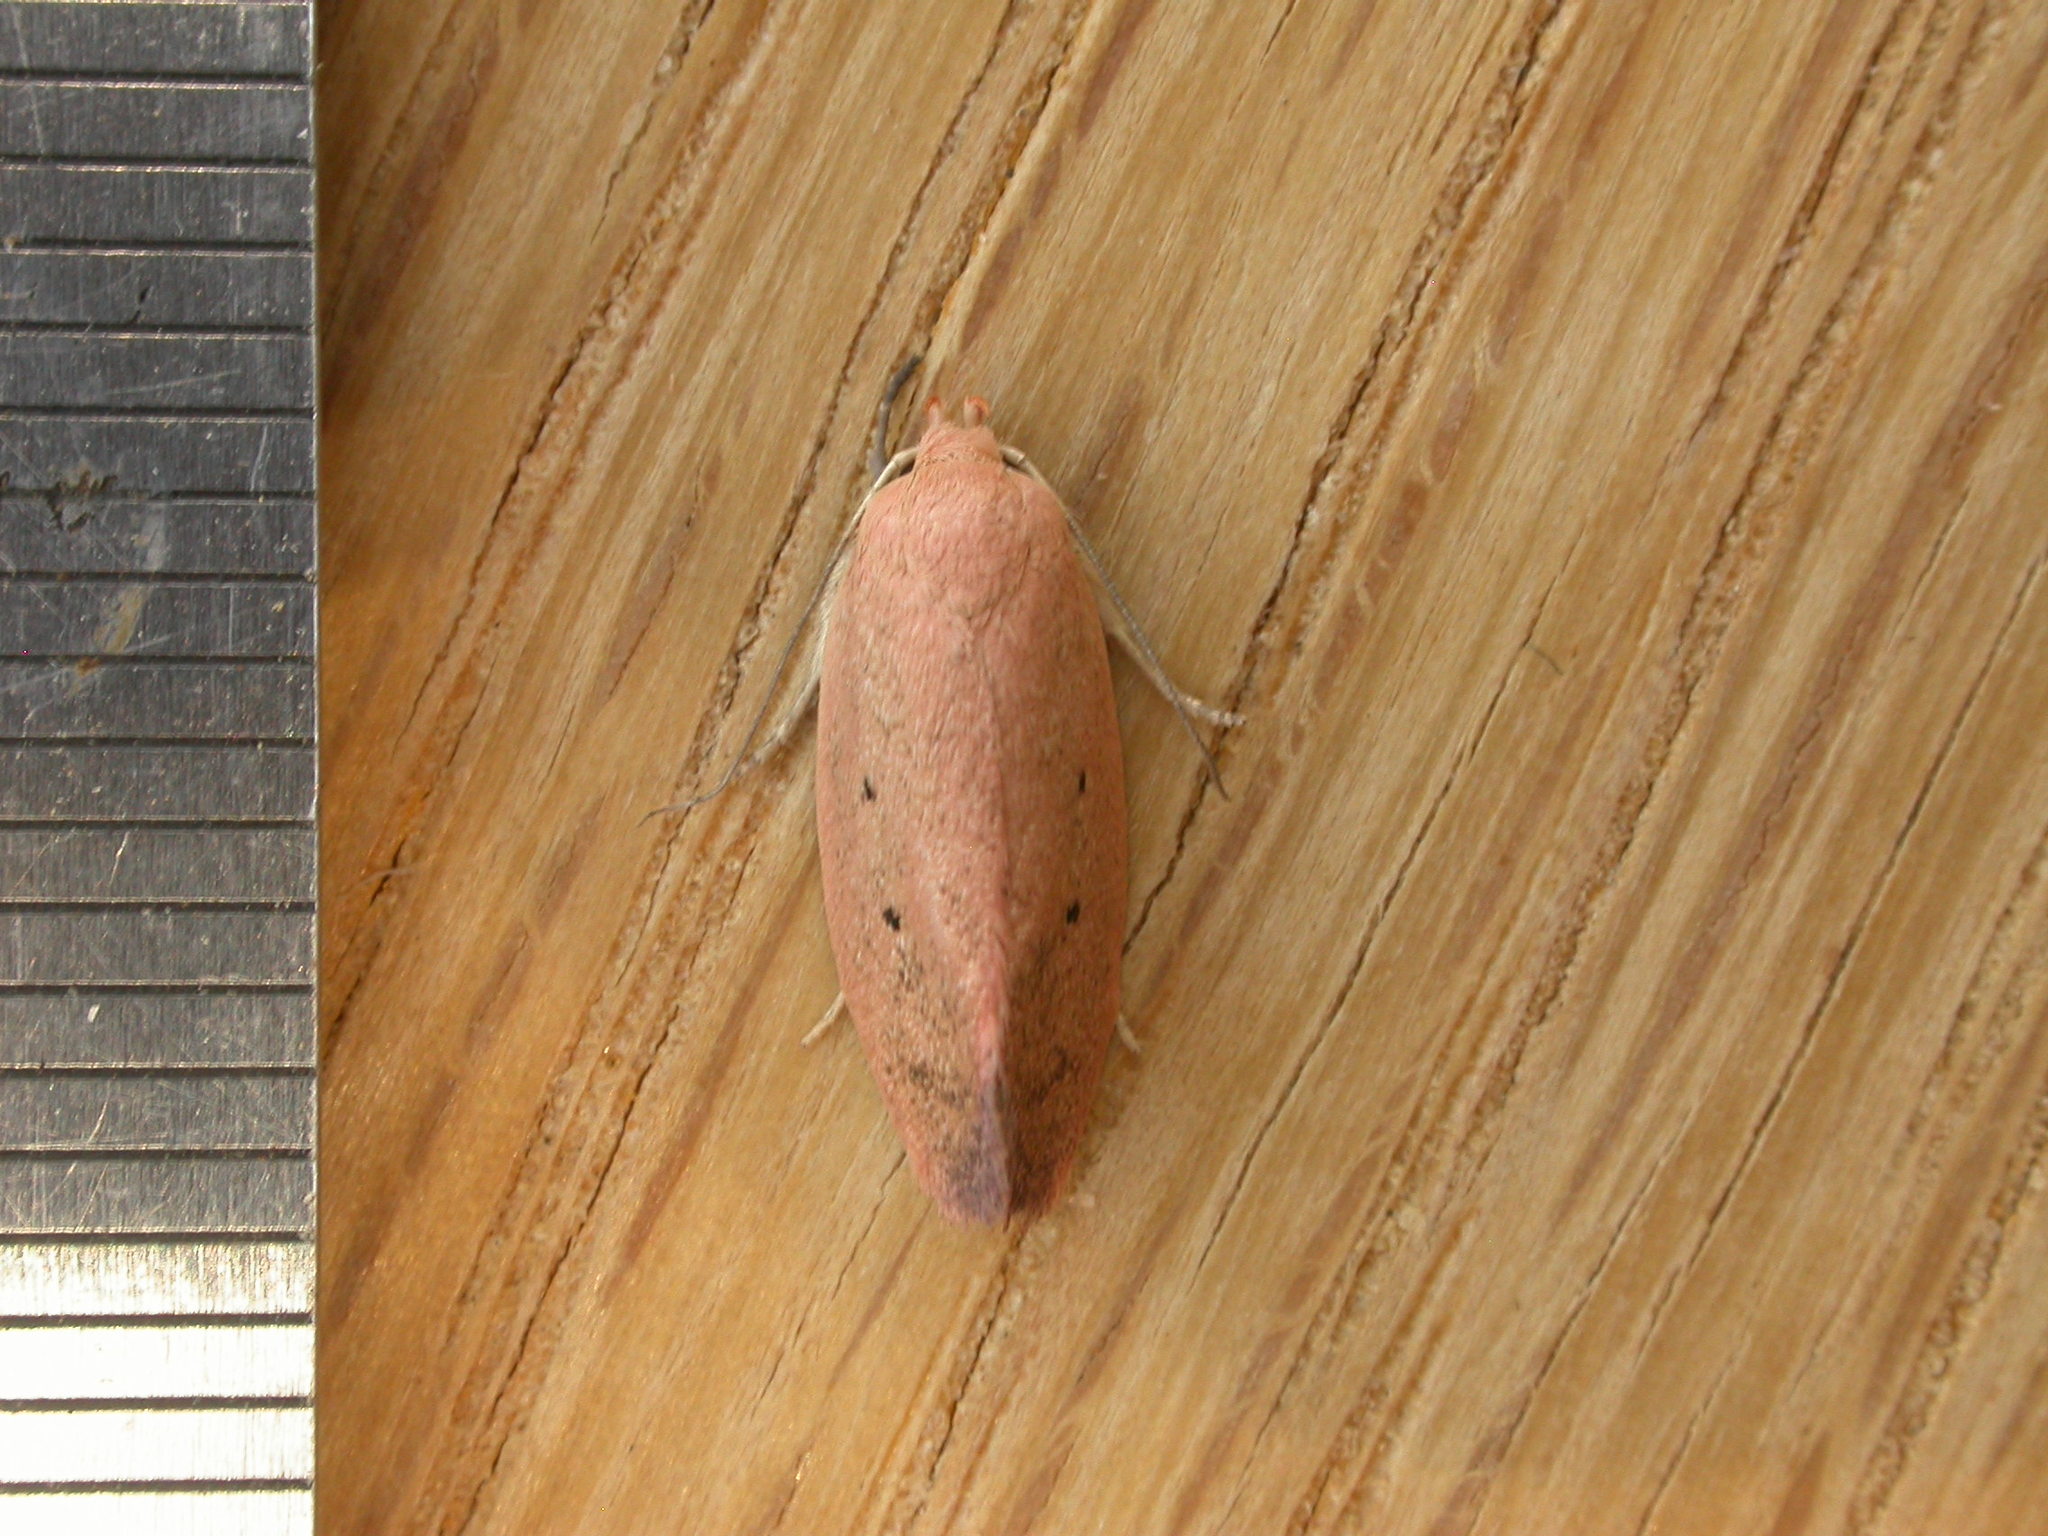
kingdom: Animalia
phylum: Arthropoda
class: Insecta
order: Lepidoptera
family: Oecophoridae
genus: Acanthodela
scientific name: Acanthodela protophaes
